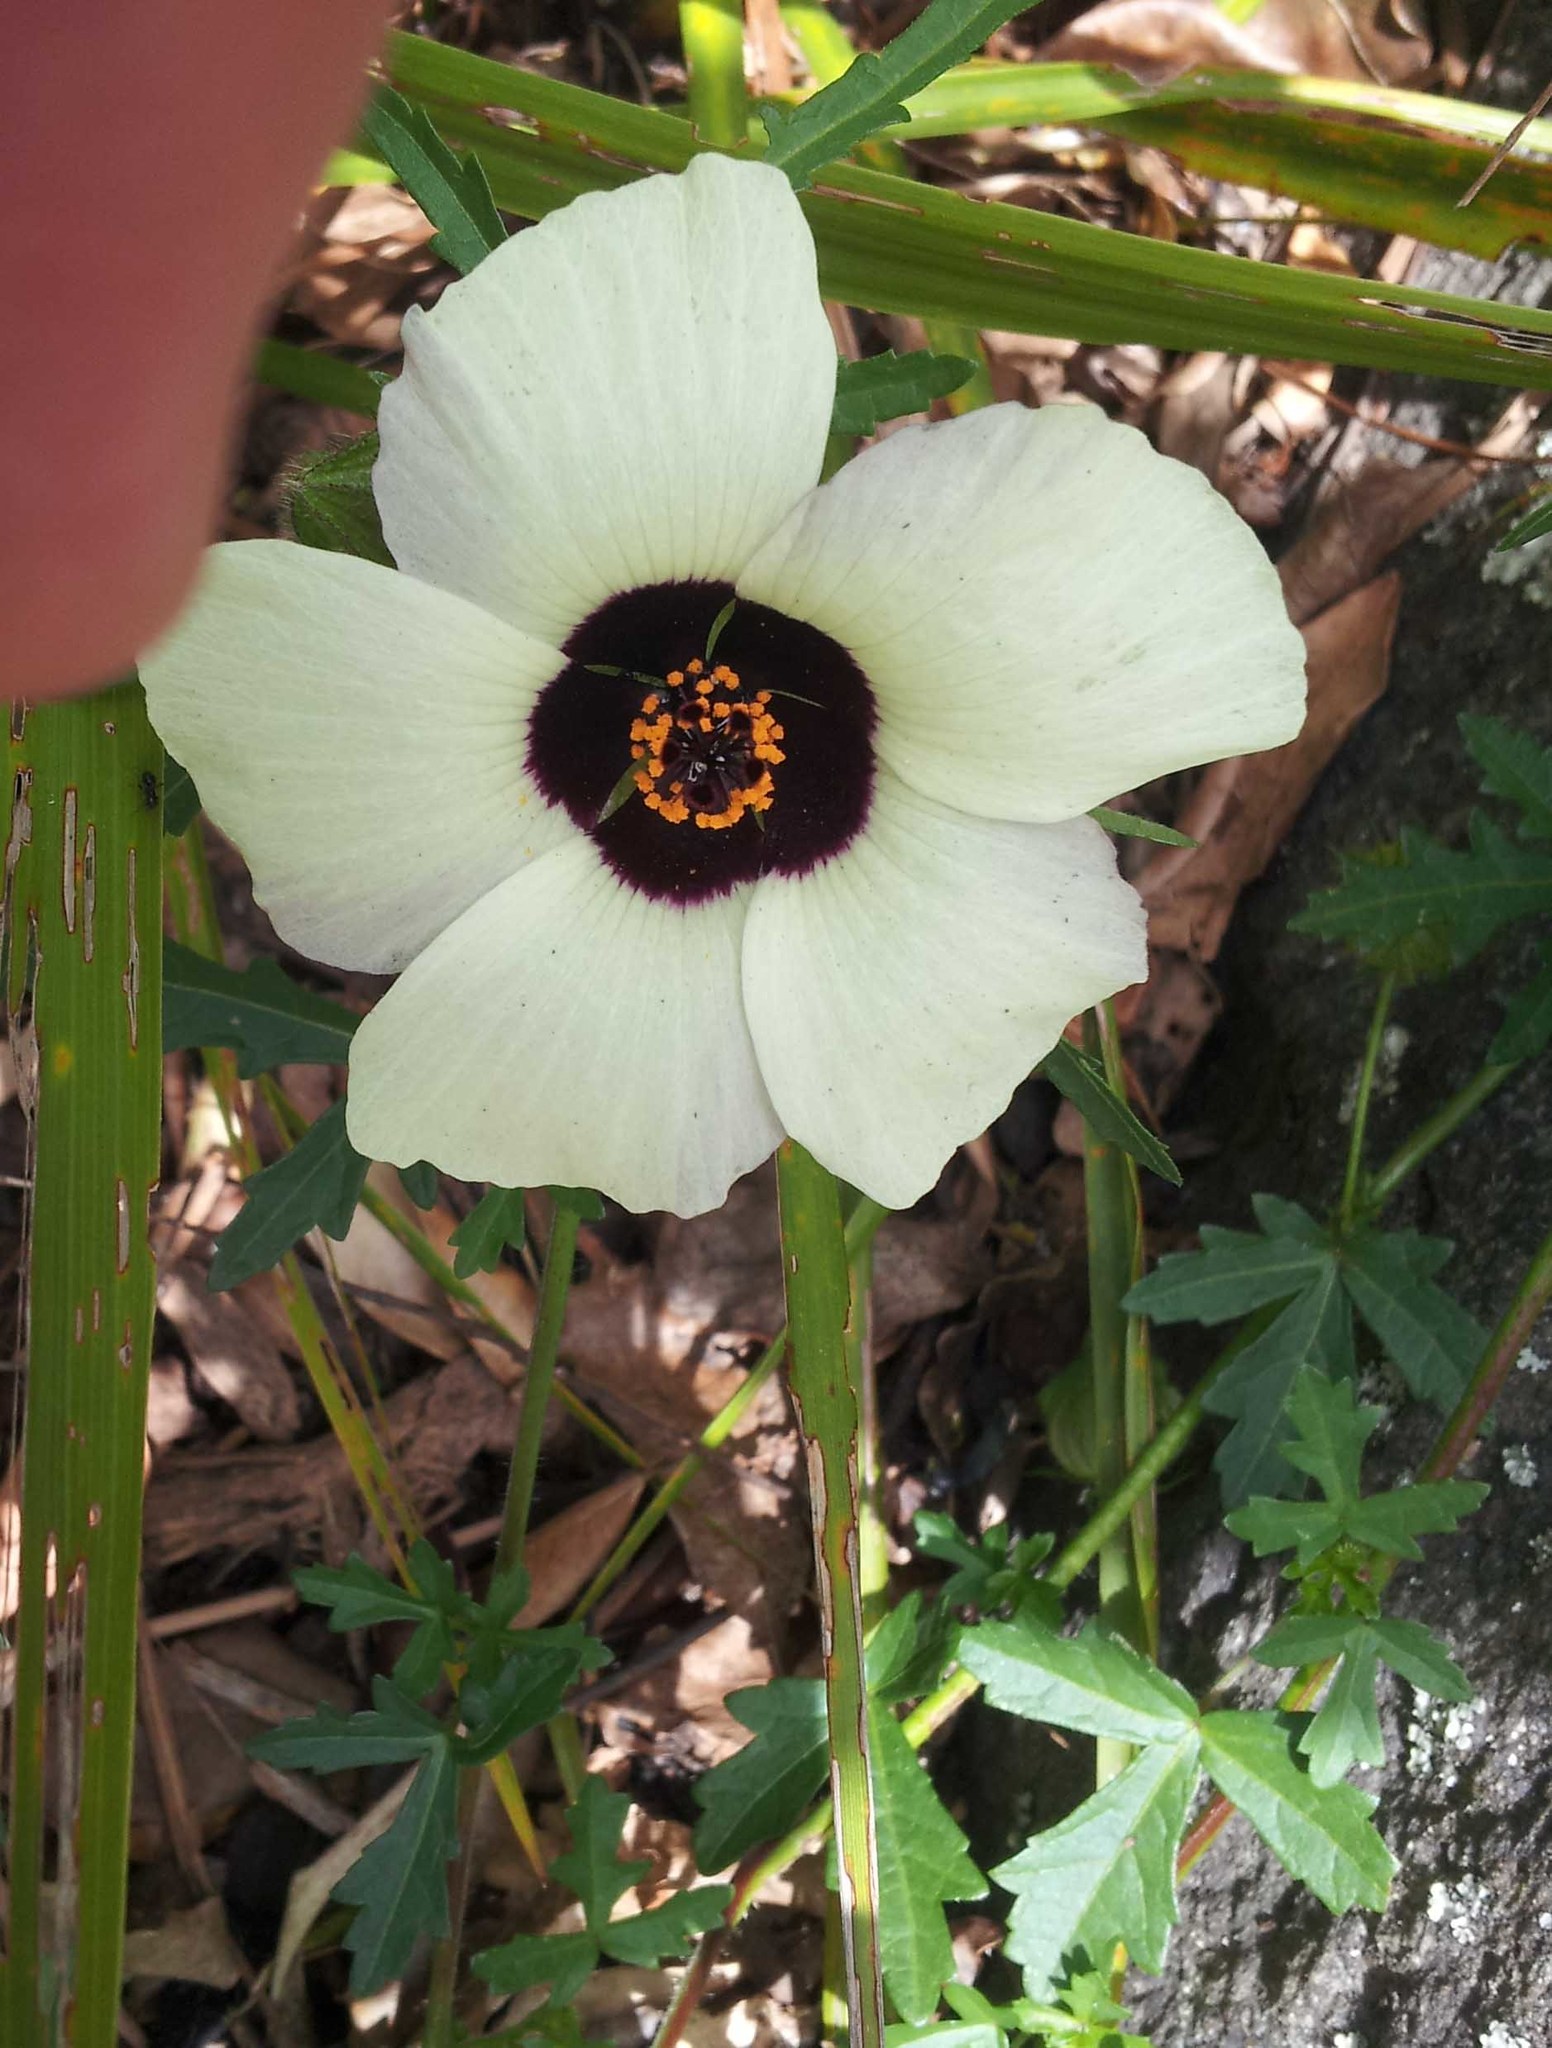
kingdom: Plantae
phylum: Tracheophyta
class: Magnoliopsida
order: Malvales
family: Malvaceae
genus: Hibiscus
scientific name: Hibiscus trionum
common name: Bladder ketmia
